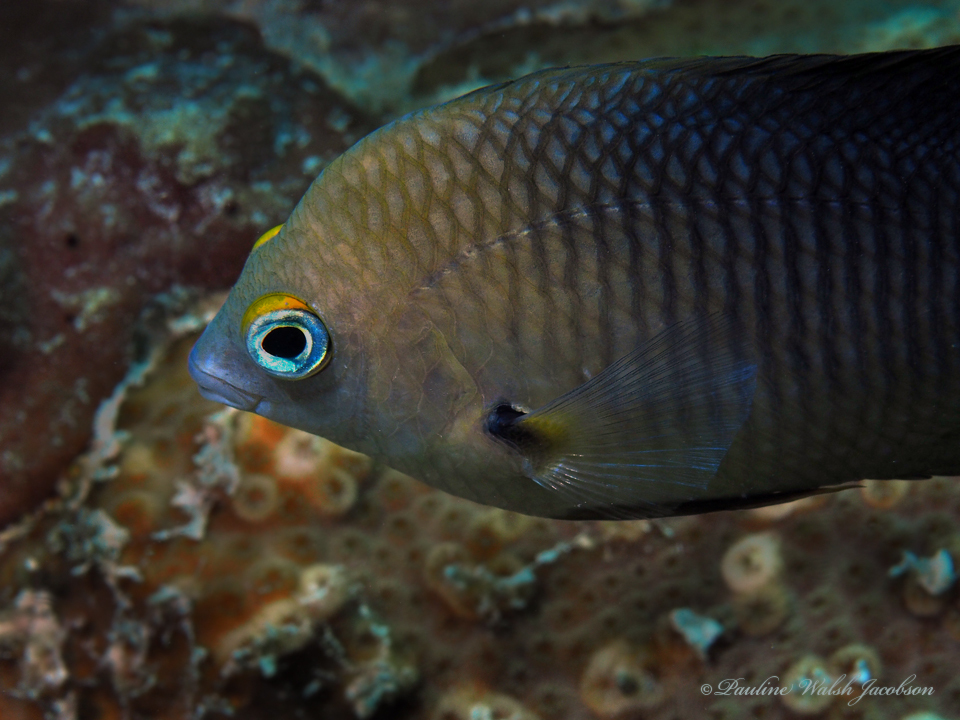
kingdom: Animalia
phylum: Chordata
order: Perciformes
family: Pomacentridae
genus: Stegastes
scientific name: Stegastes planifrons
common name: Threespot damselfish
